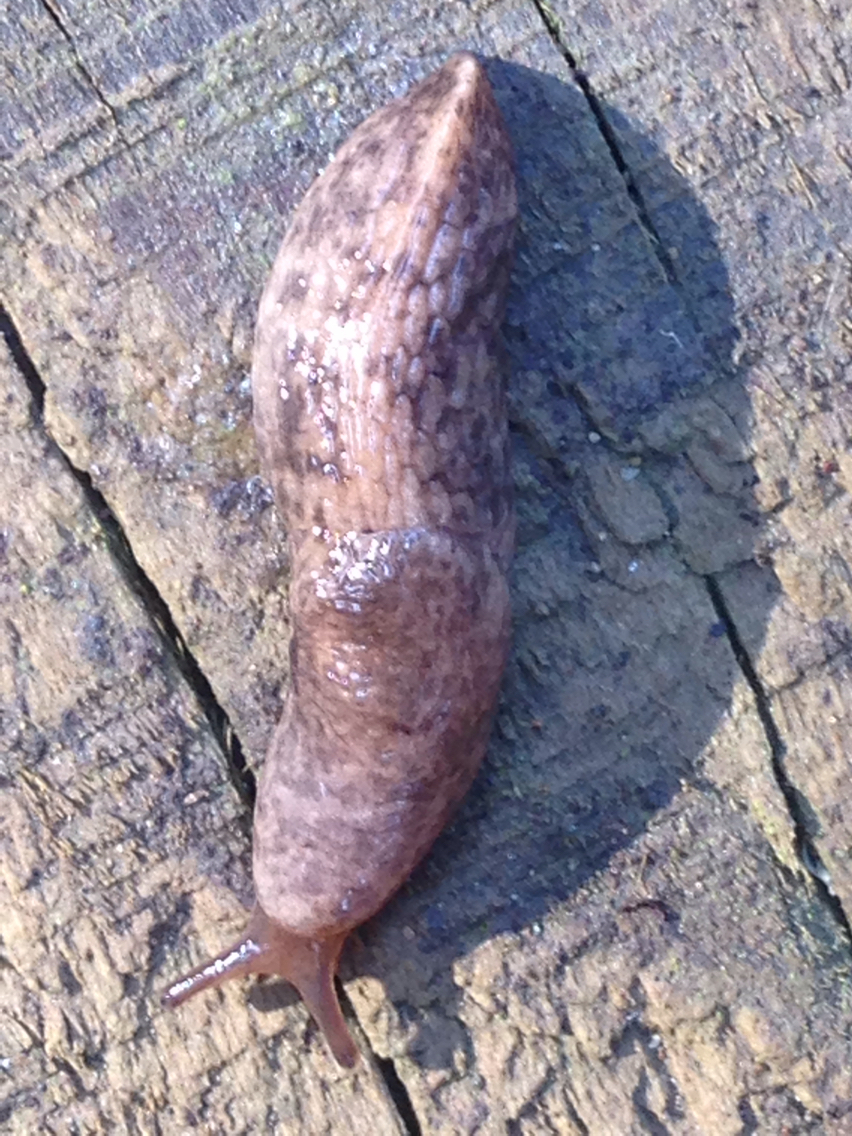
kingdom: Animalia
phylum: Mollusca
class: Gastropoda
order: Stylommatophora
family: Agriolimacidae
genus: Deroceras
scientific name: Deroceras reticulatum
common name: Gray field slug
